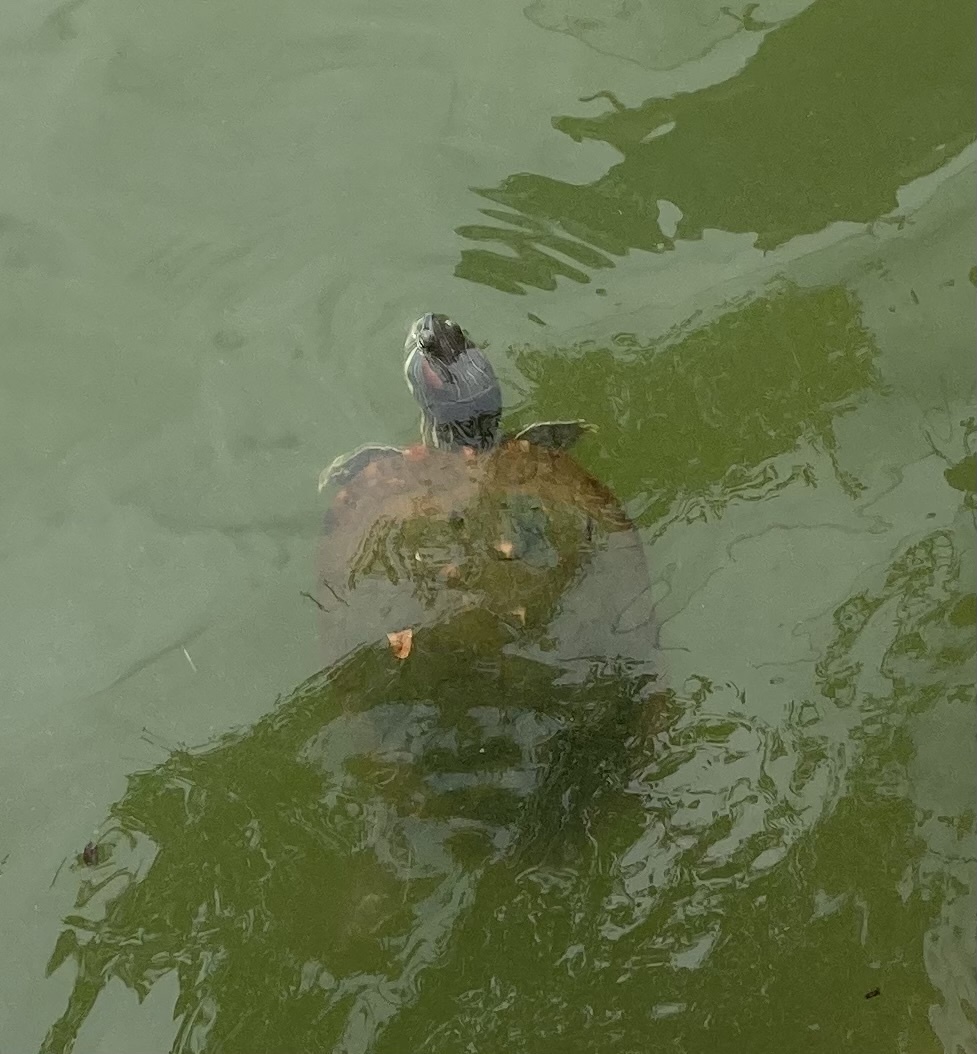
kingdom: Animalia
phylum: Chordata
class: Testudines
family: Emydidae
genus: Trachemys
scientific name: Trachemys scripta
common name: Slider
